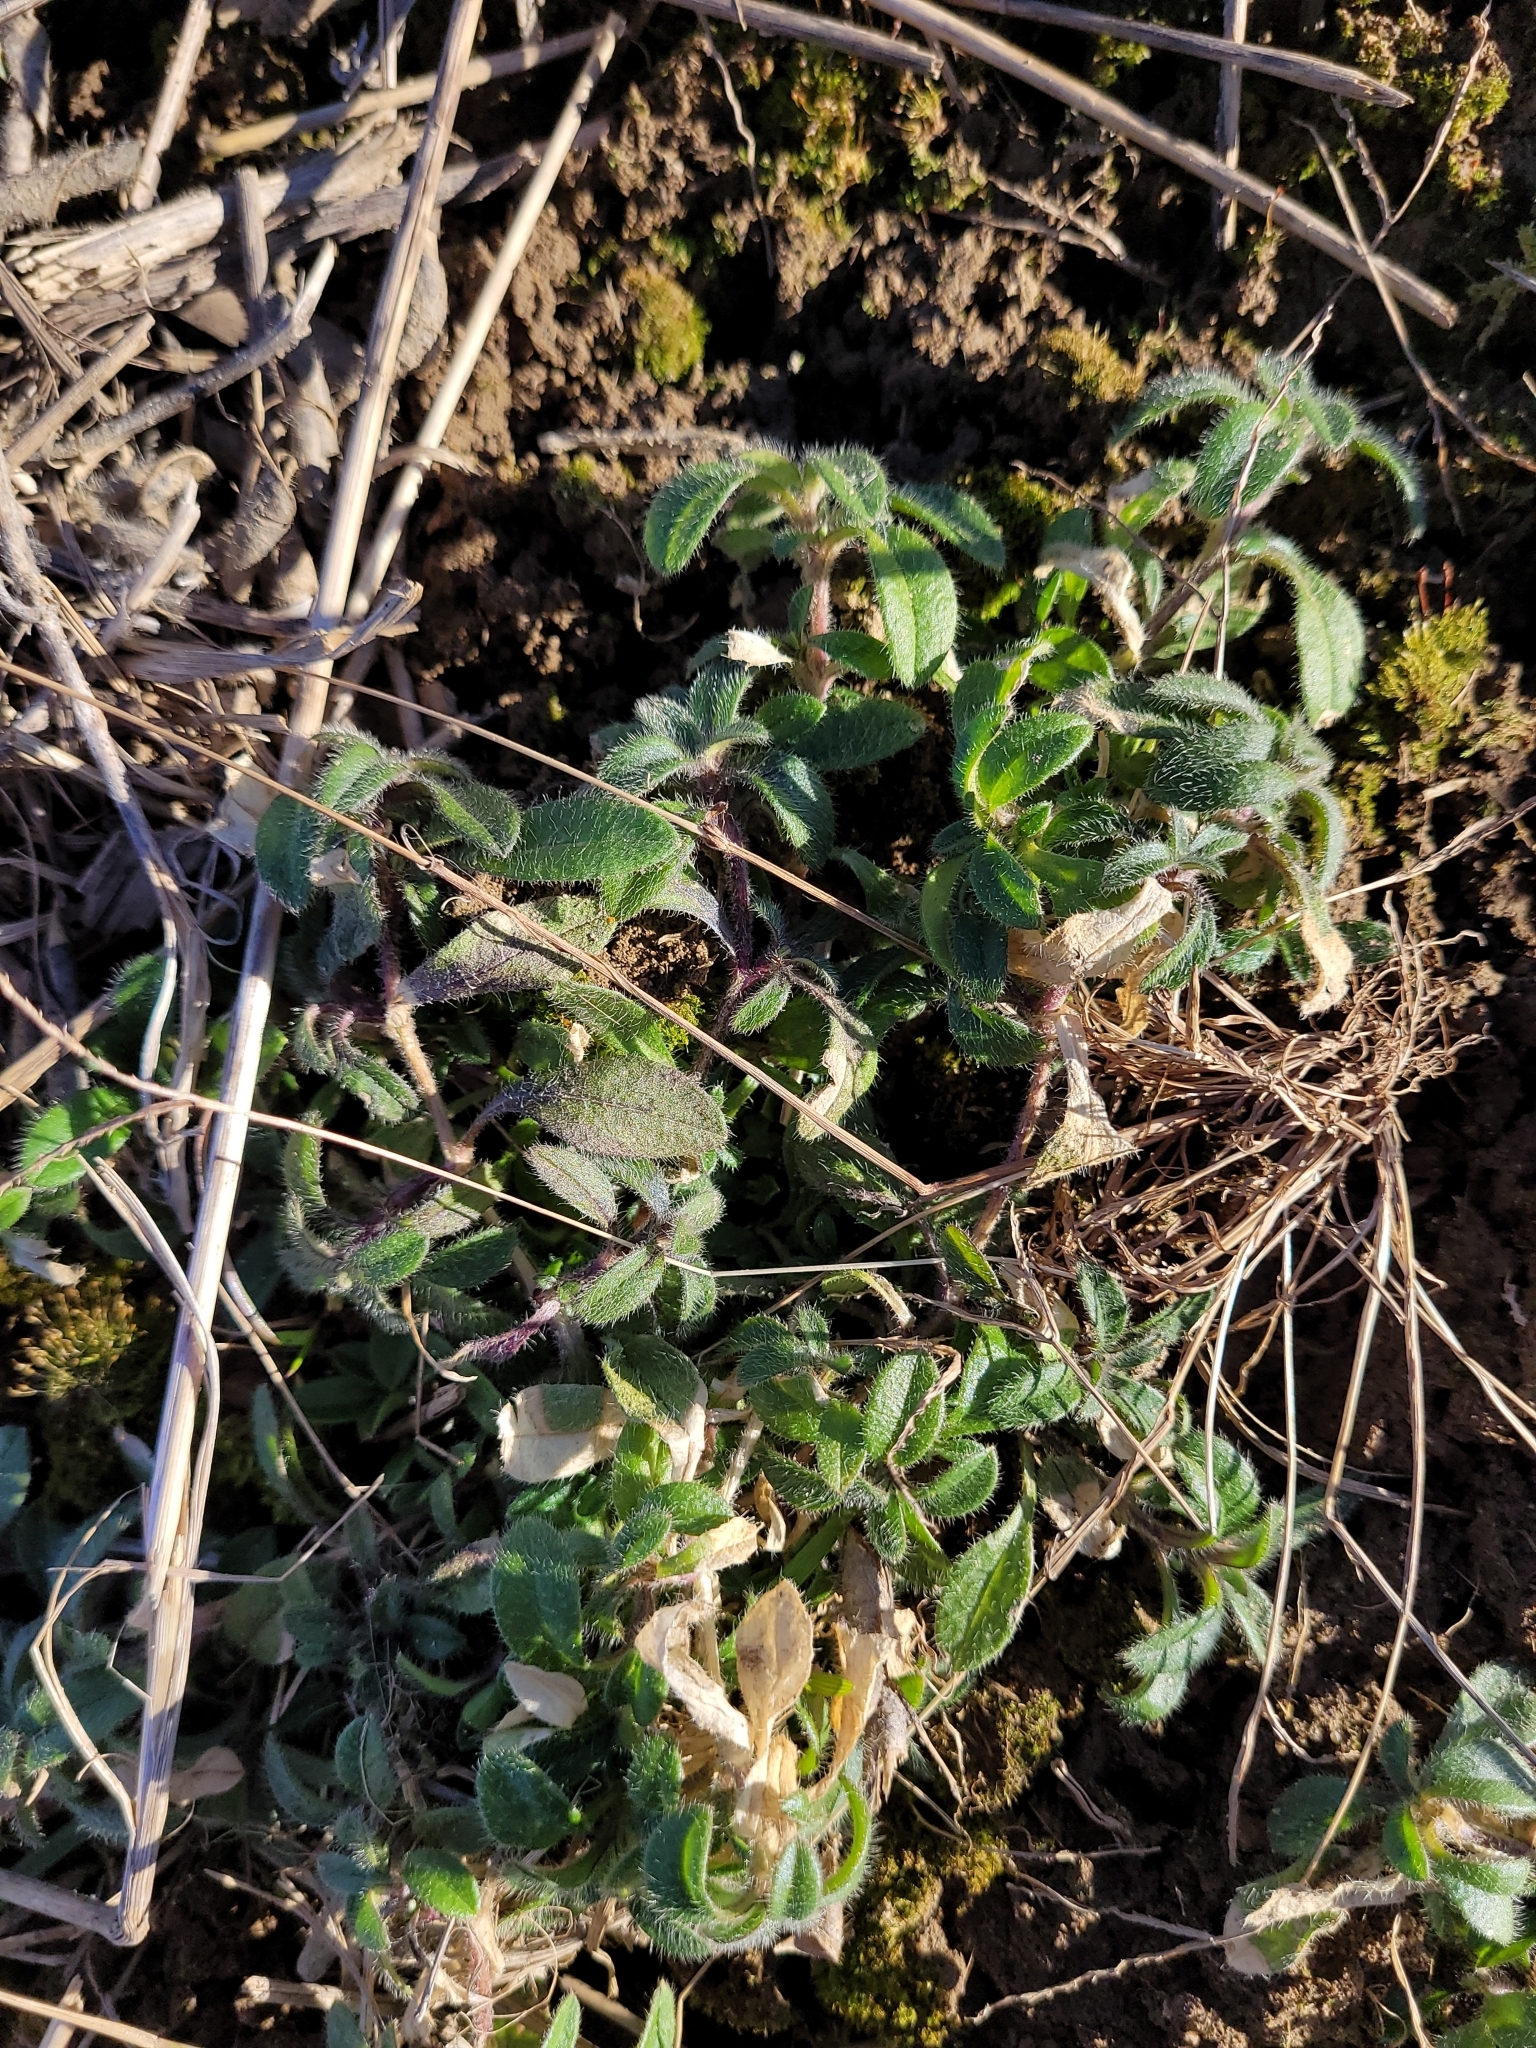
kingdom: Plantae
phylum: Tracheophyta
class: Magnoliopsida
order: Caryophyllales
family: Caryophyllaceae
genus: Cerastium
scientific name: Cerastium fontanum
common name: Common mouse-ear
